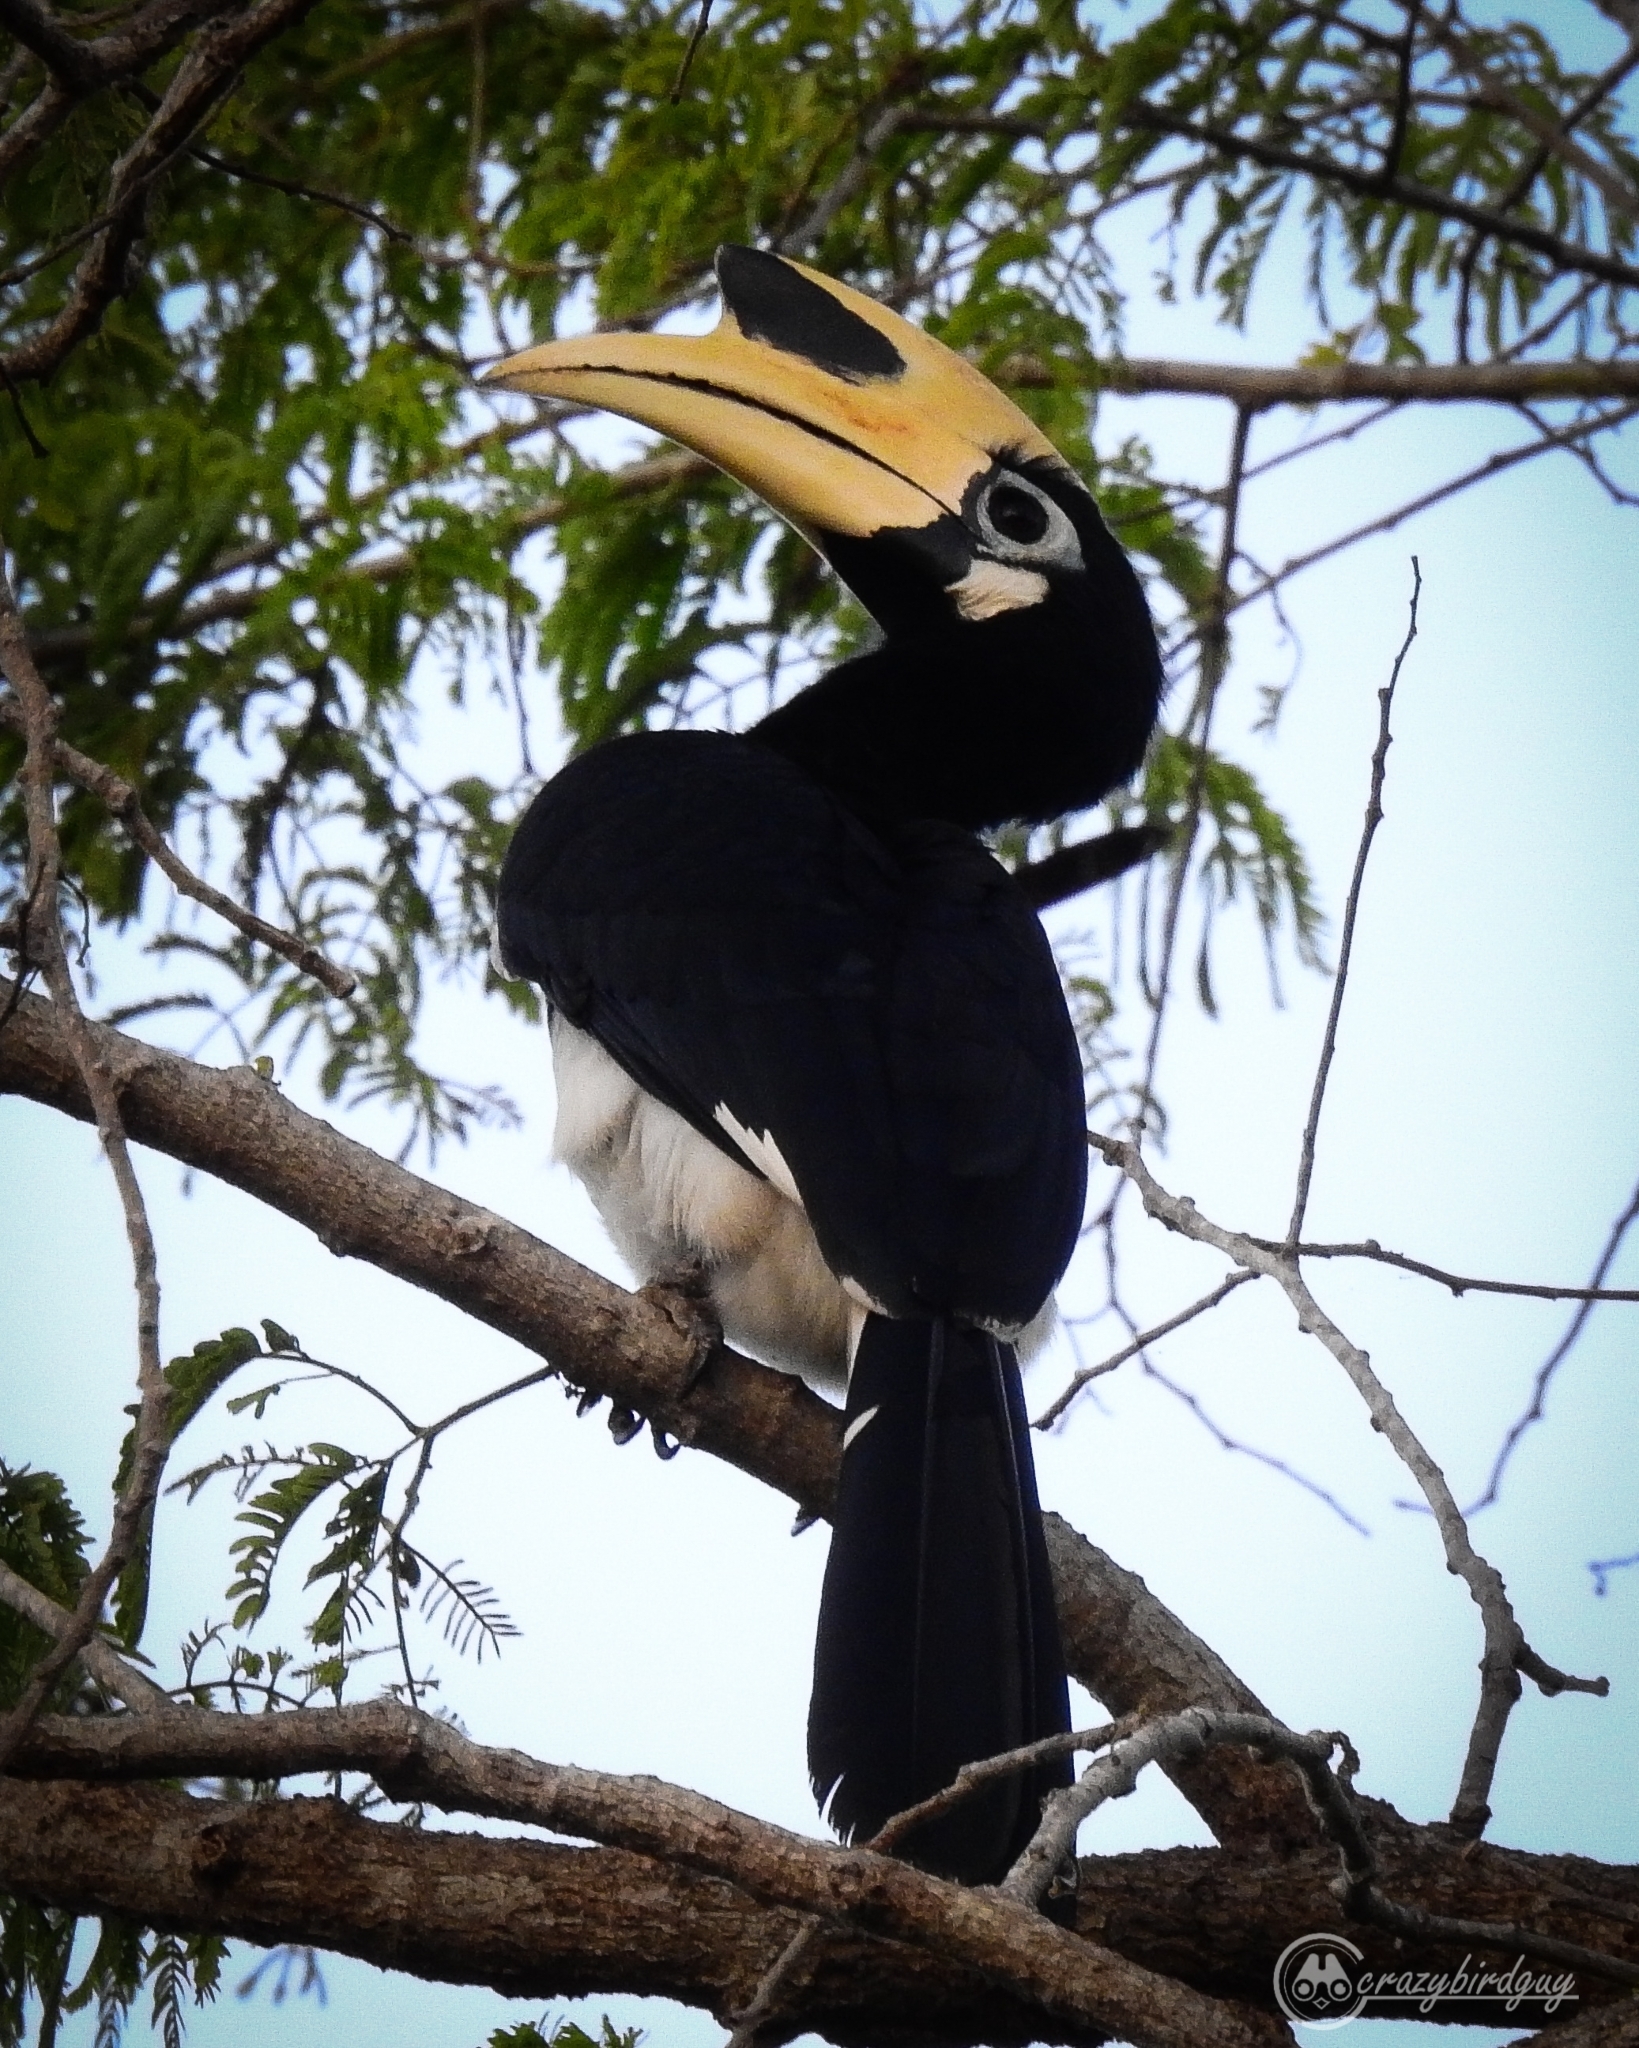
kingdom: Animalia
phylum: Chordata
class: Aves
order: Bucerotiformes
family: Bucerotidae
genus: Anthracoceros
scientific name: Anthracoceros albirostris
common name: Oriental pied-hornbill
